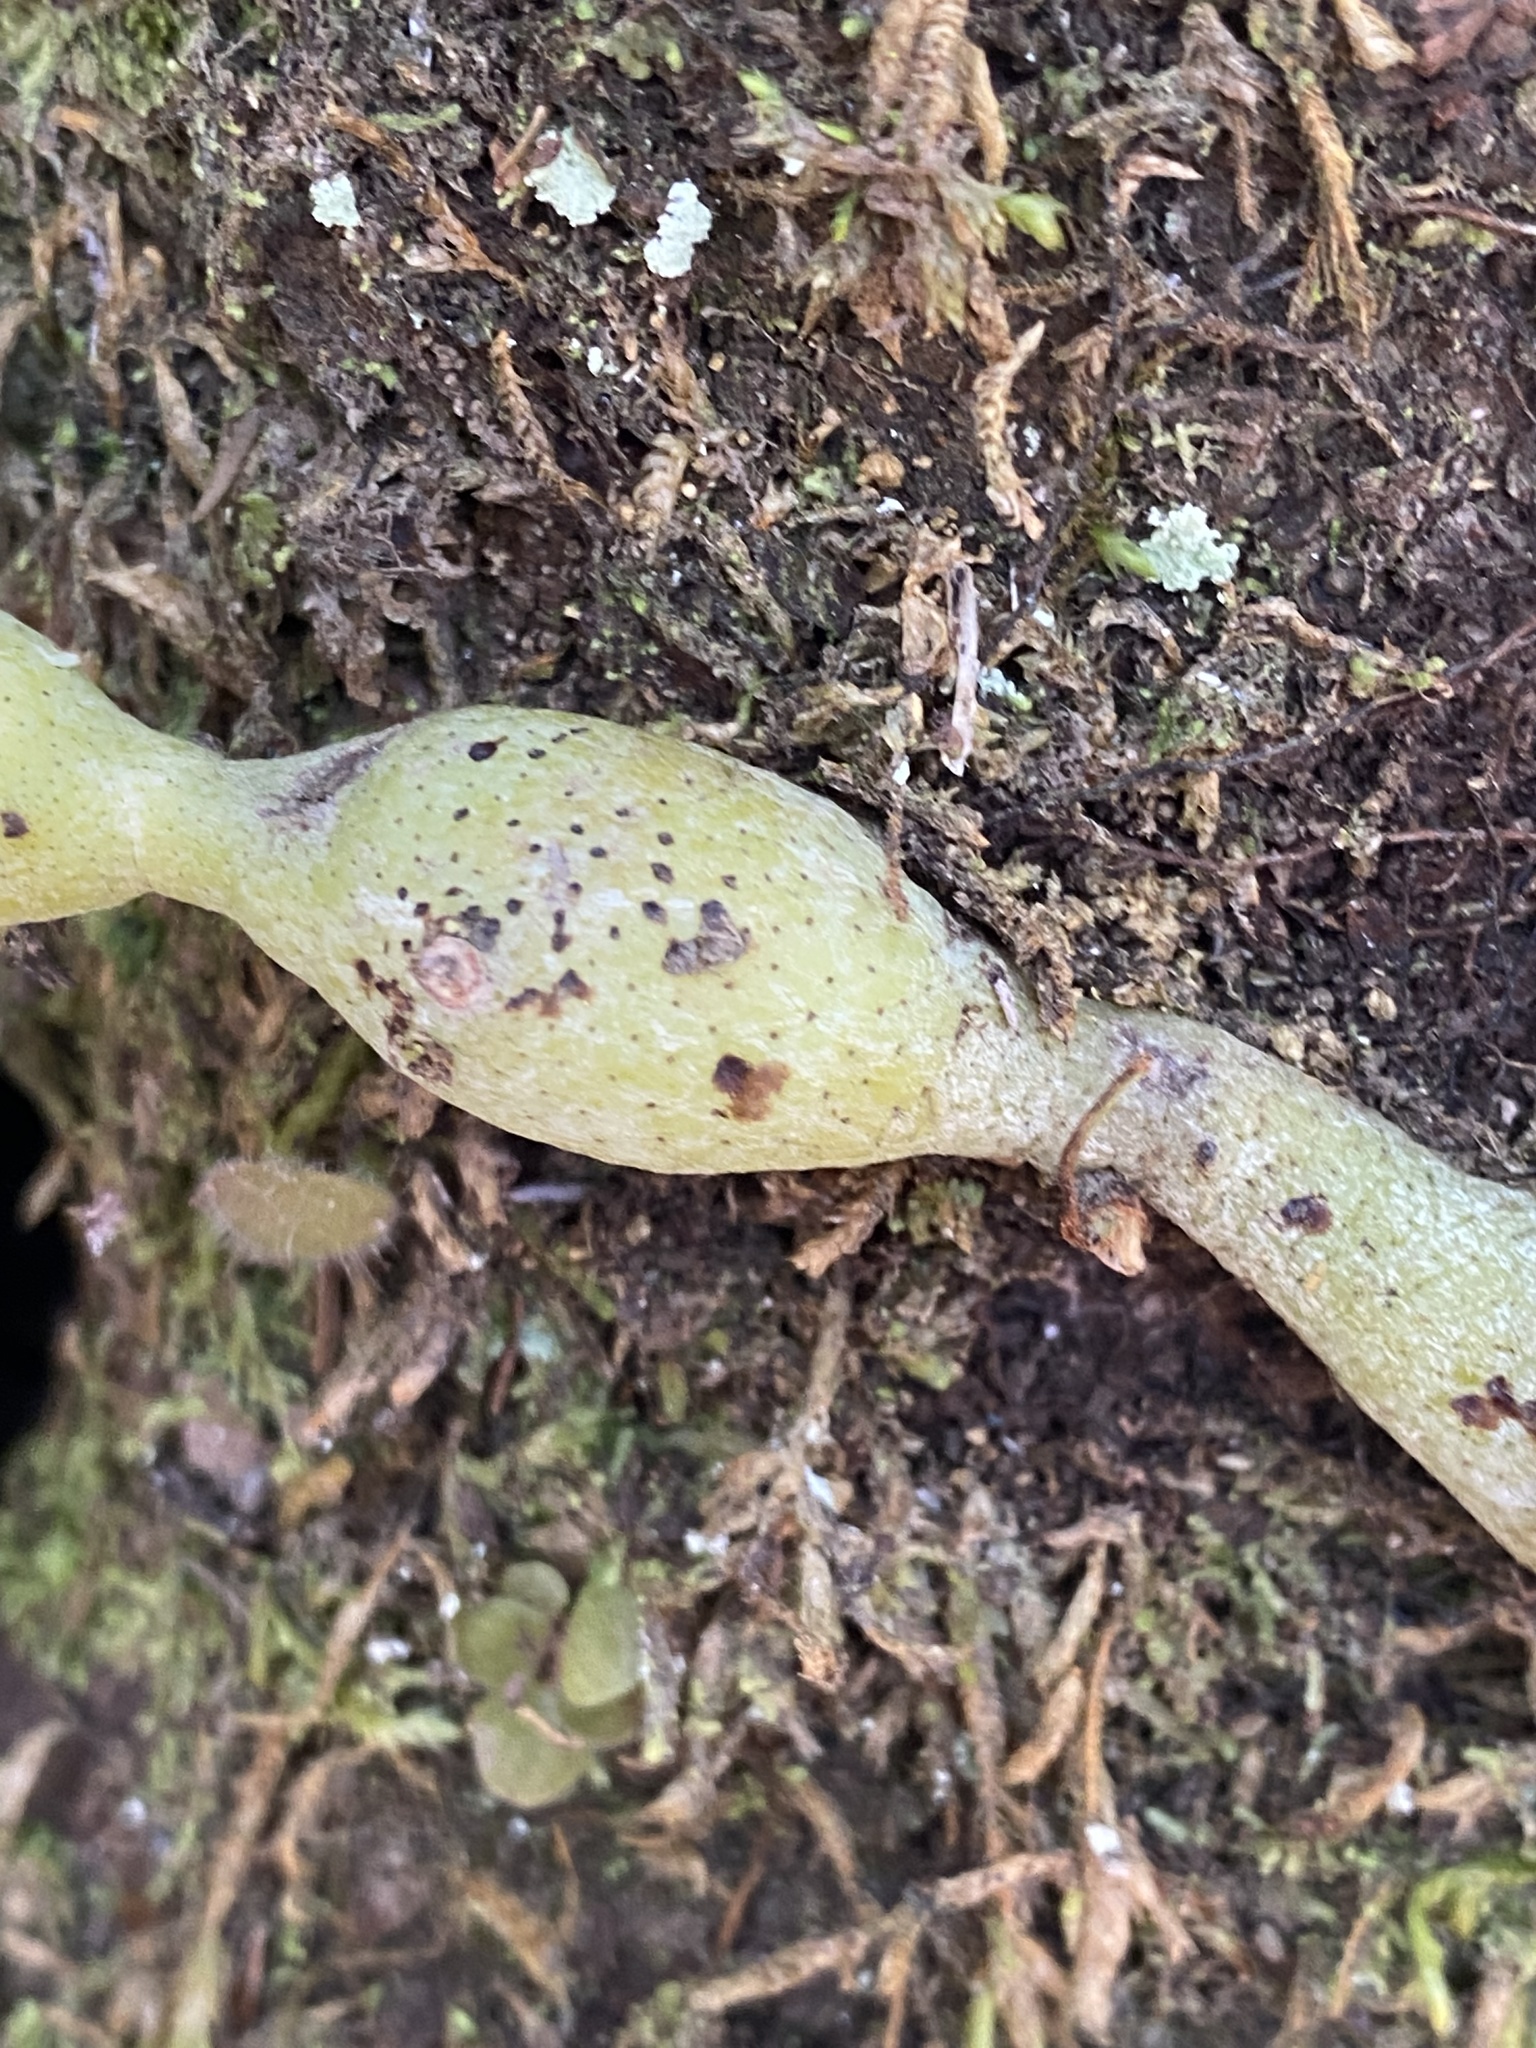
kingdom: Plantae
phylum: Tracheophyta
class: Polypodiopsida
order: Polypodiales
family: Davalliaceae
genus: Davallia
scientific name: Davallia canariensis
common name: Hare's-foot fern
